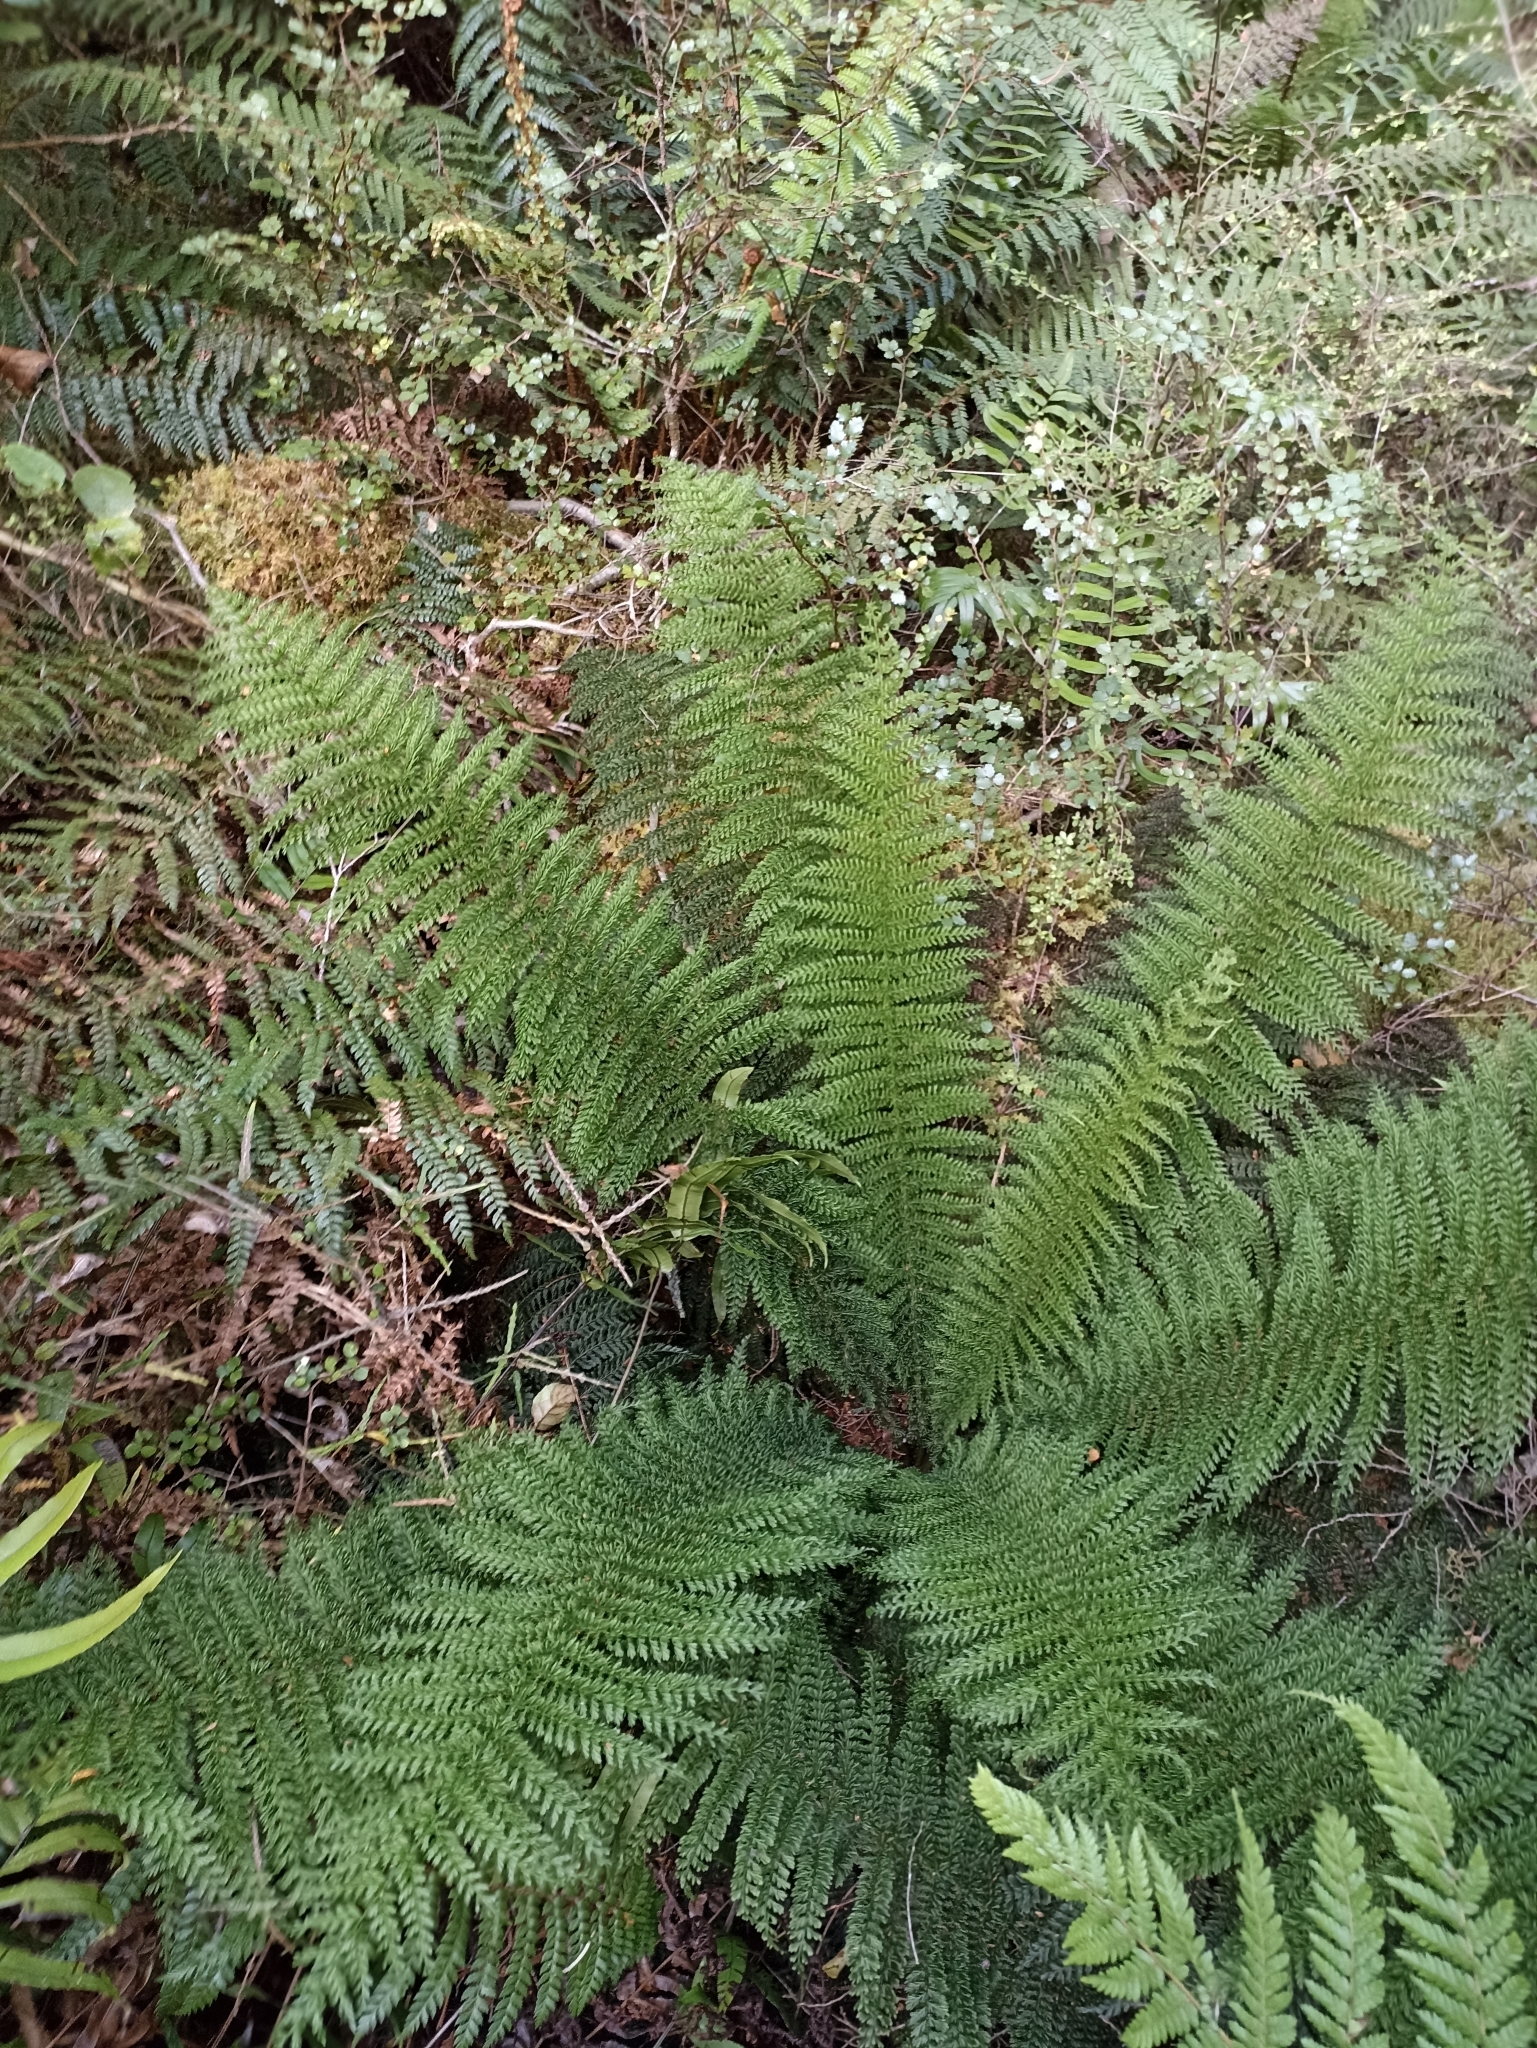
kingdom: Plantae
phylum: Tracheophyta
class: Polypodiopsida
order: Osmundales
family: Osmundaceae
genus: Leptopteris
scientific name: Leptopteris superba
